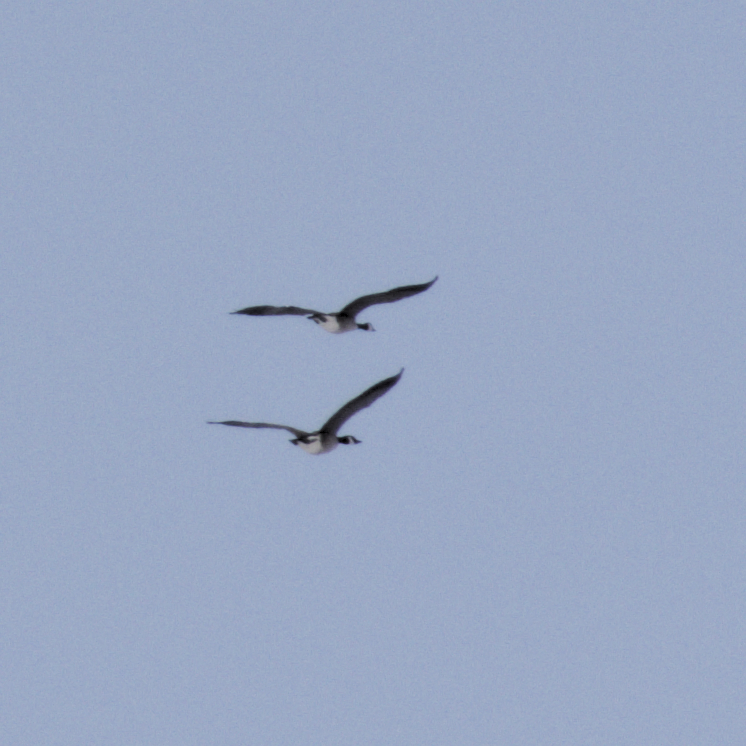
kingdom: Animalia
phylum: Chordata
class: Aves
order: Anseriformes
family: Anatidae
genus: Branta
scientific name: Branta canadensis
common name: Canada goose
